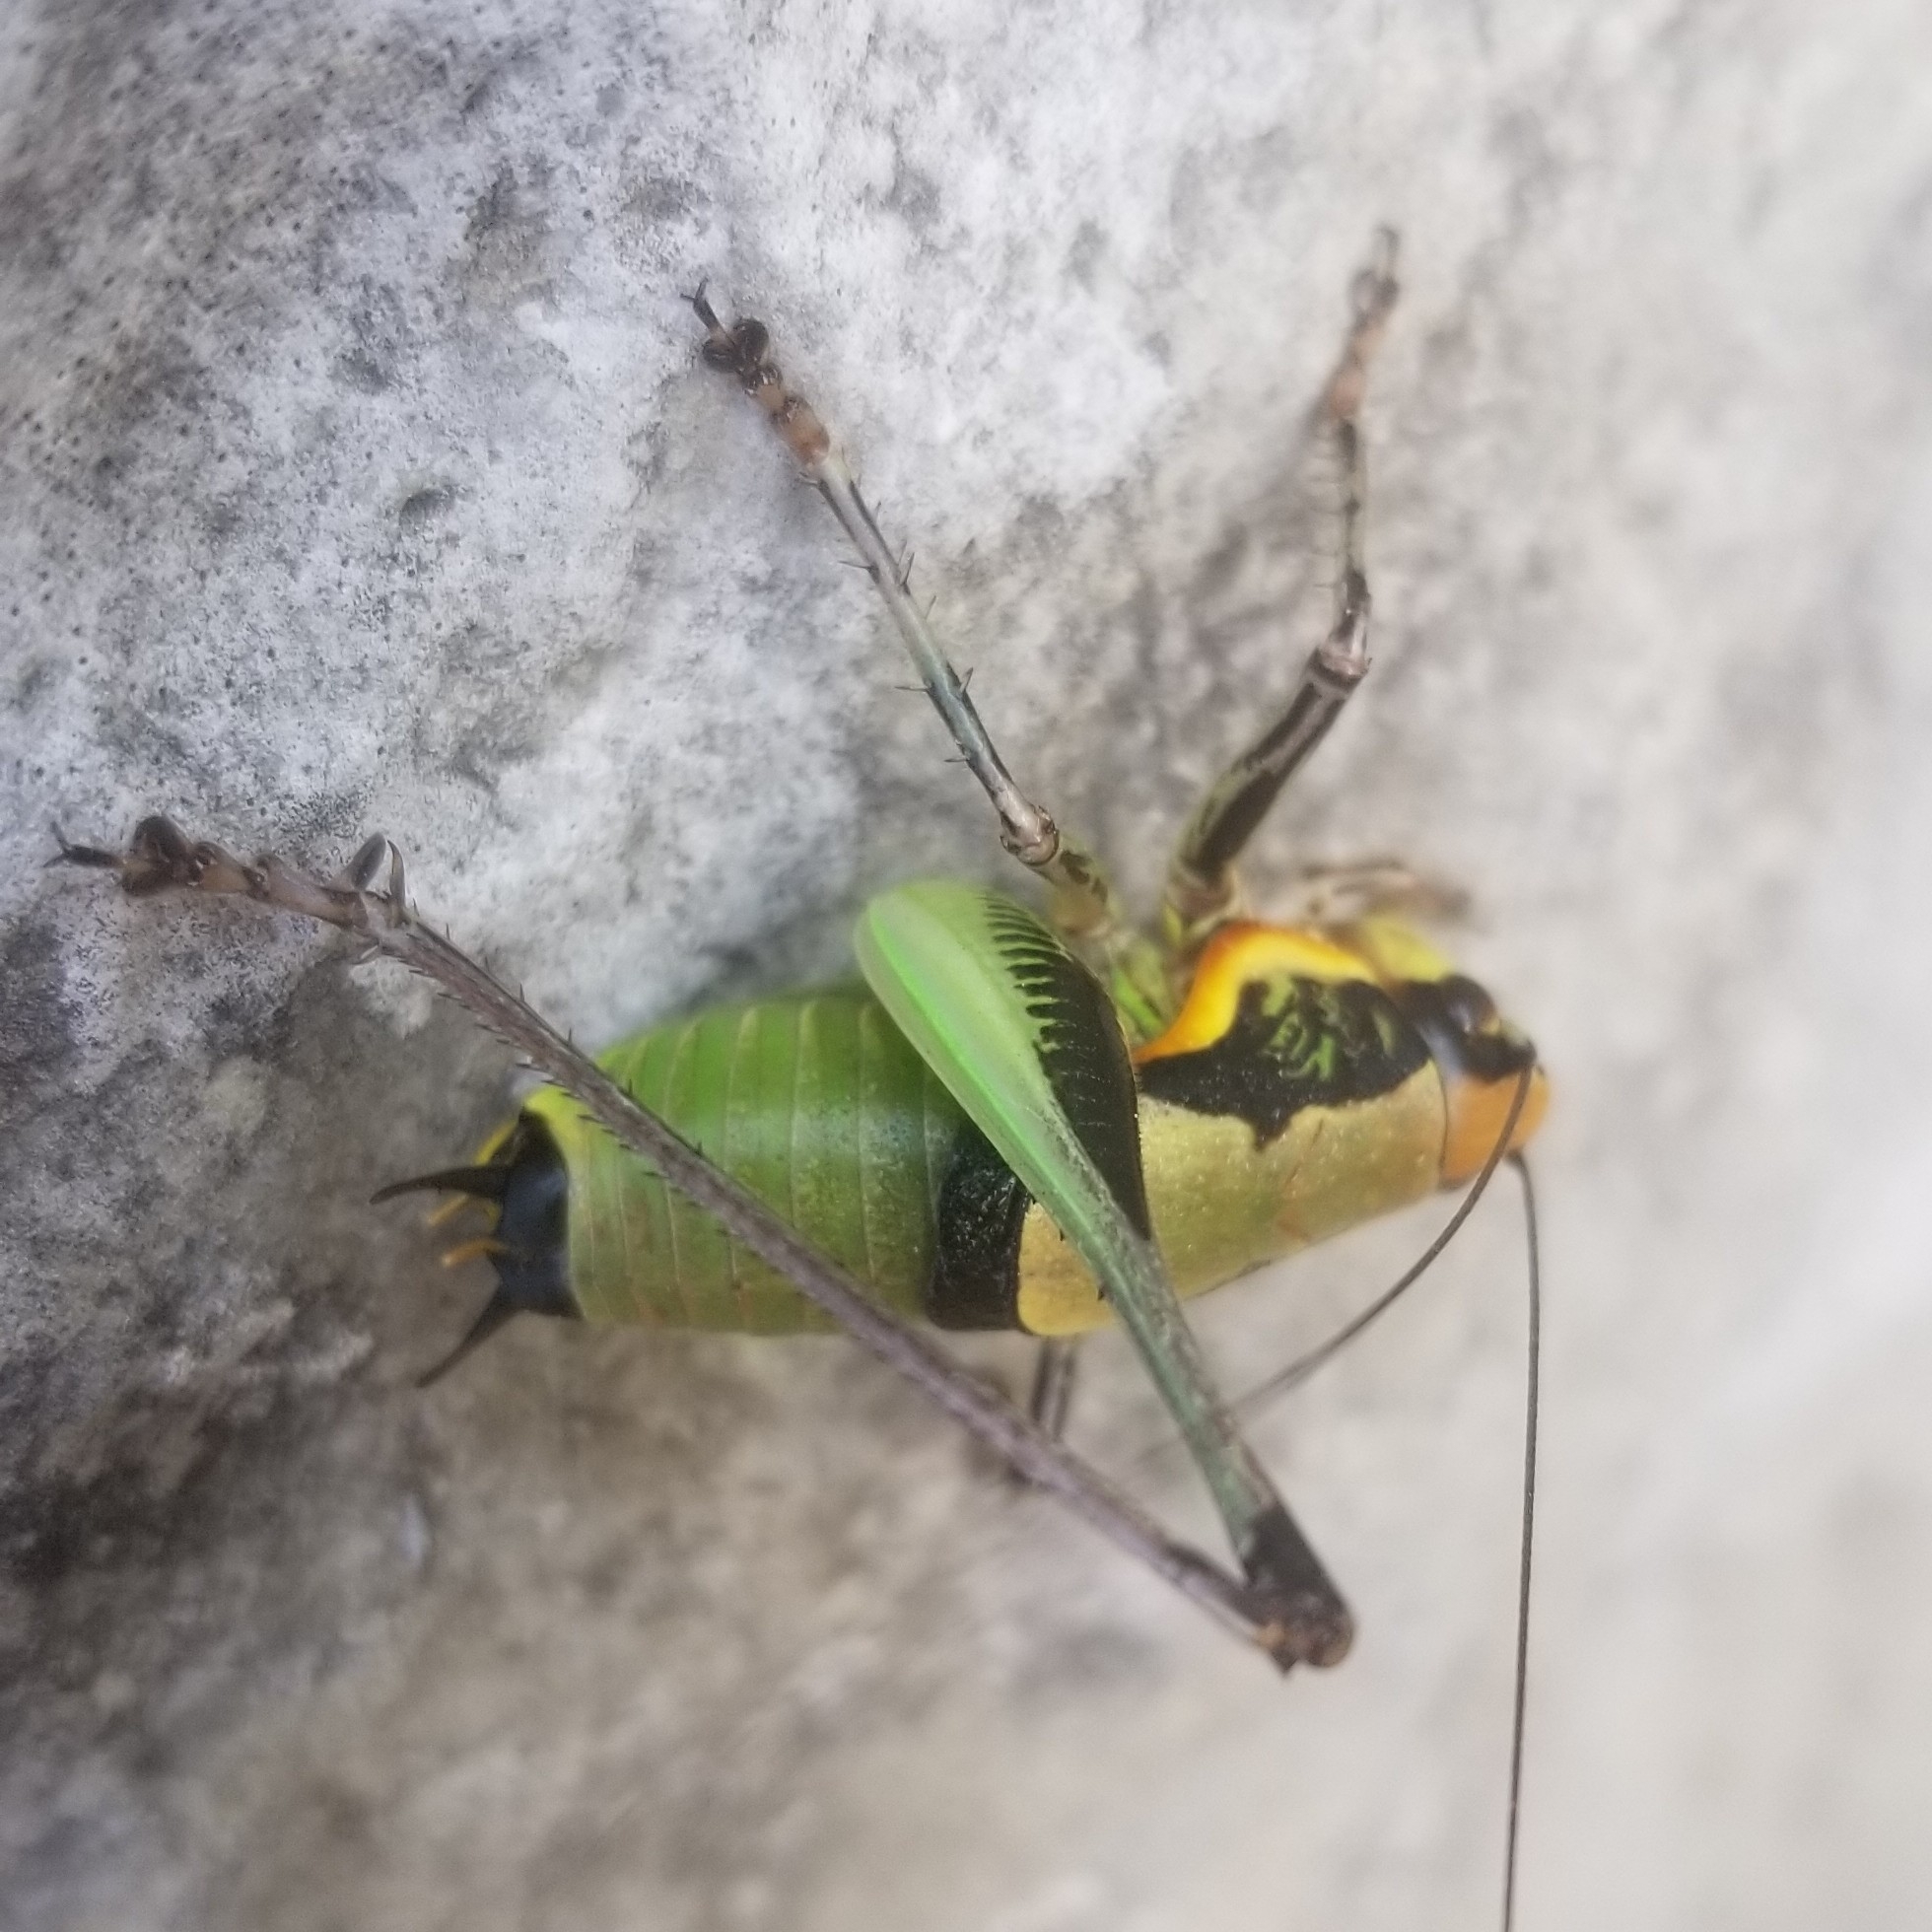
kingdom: Animalia
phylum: Arthropoda
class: Insecta
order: Orthoptera
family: Tettigoniidae
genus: Eupholidoptera
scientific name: Eupholidoptera schmidti
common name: Schmidt's marbled bush-cricket
